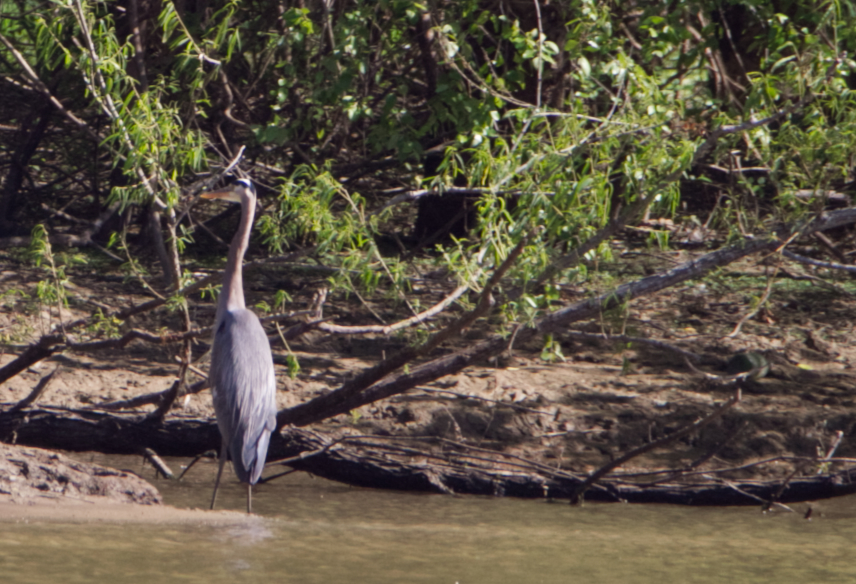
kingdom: Animalia
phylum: Chordata
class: Aves
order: Pelecaniformes
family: Ardeidae
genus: Ardea
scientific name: Ardea herodias
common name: Great blue heron
